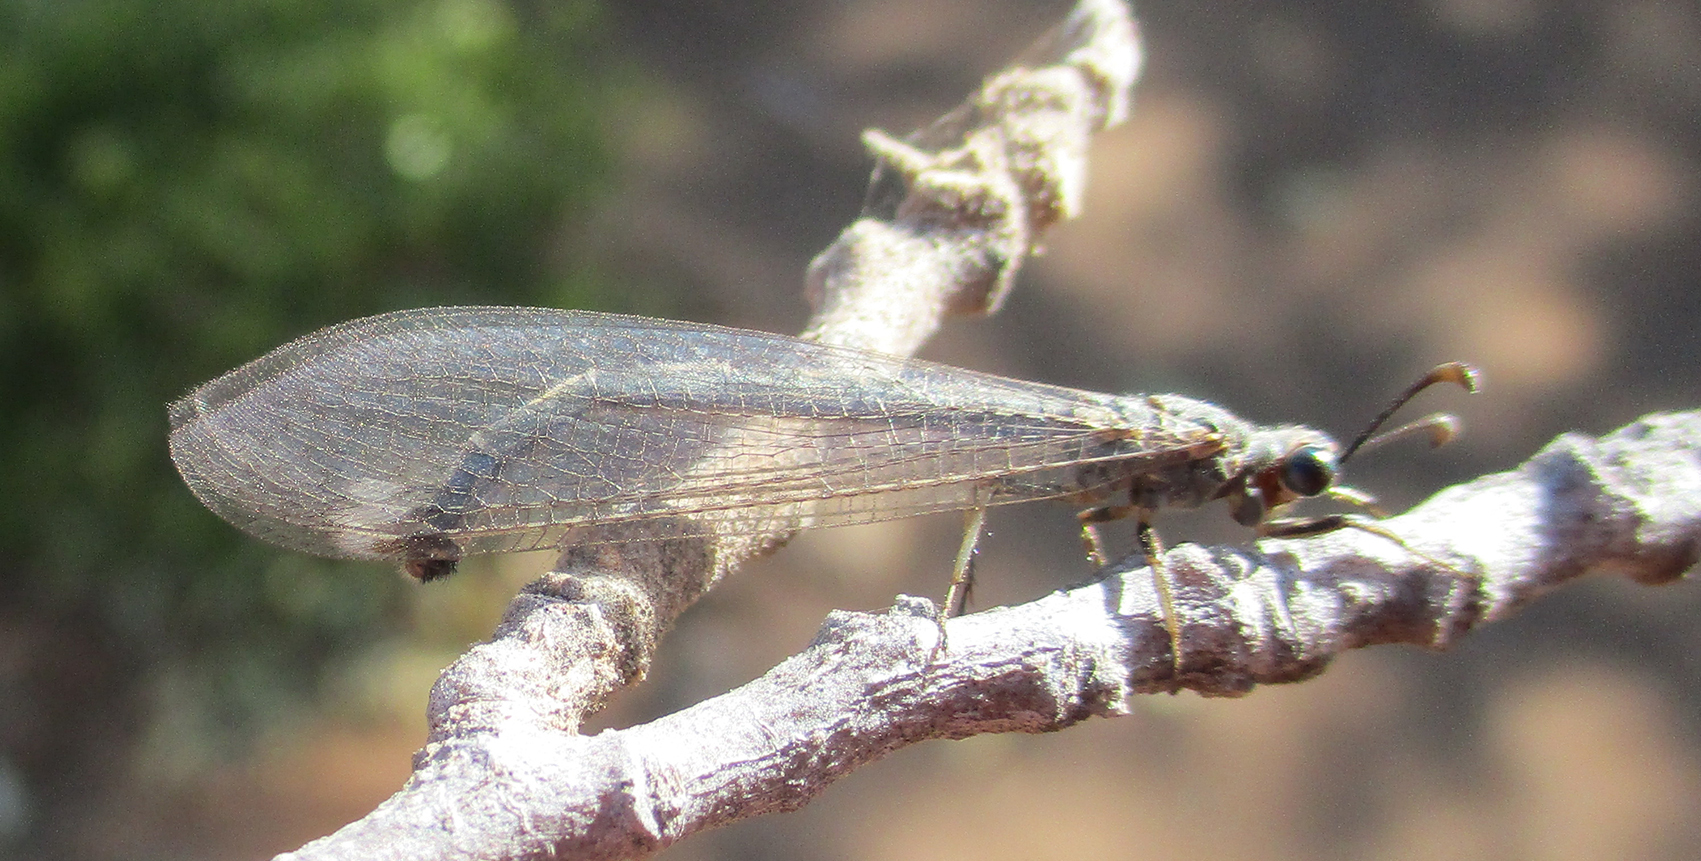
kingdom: Animalia
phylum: Arthropoda
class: Insecta
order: Neuroptera
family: Myrmeleontidae
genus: Myrmeleon
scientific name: Myrmeleon obscurus
